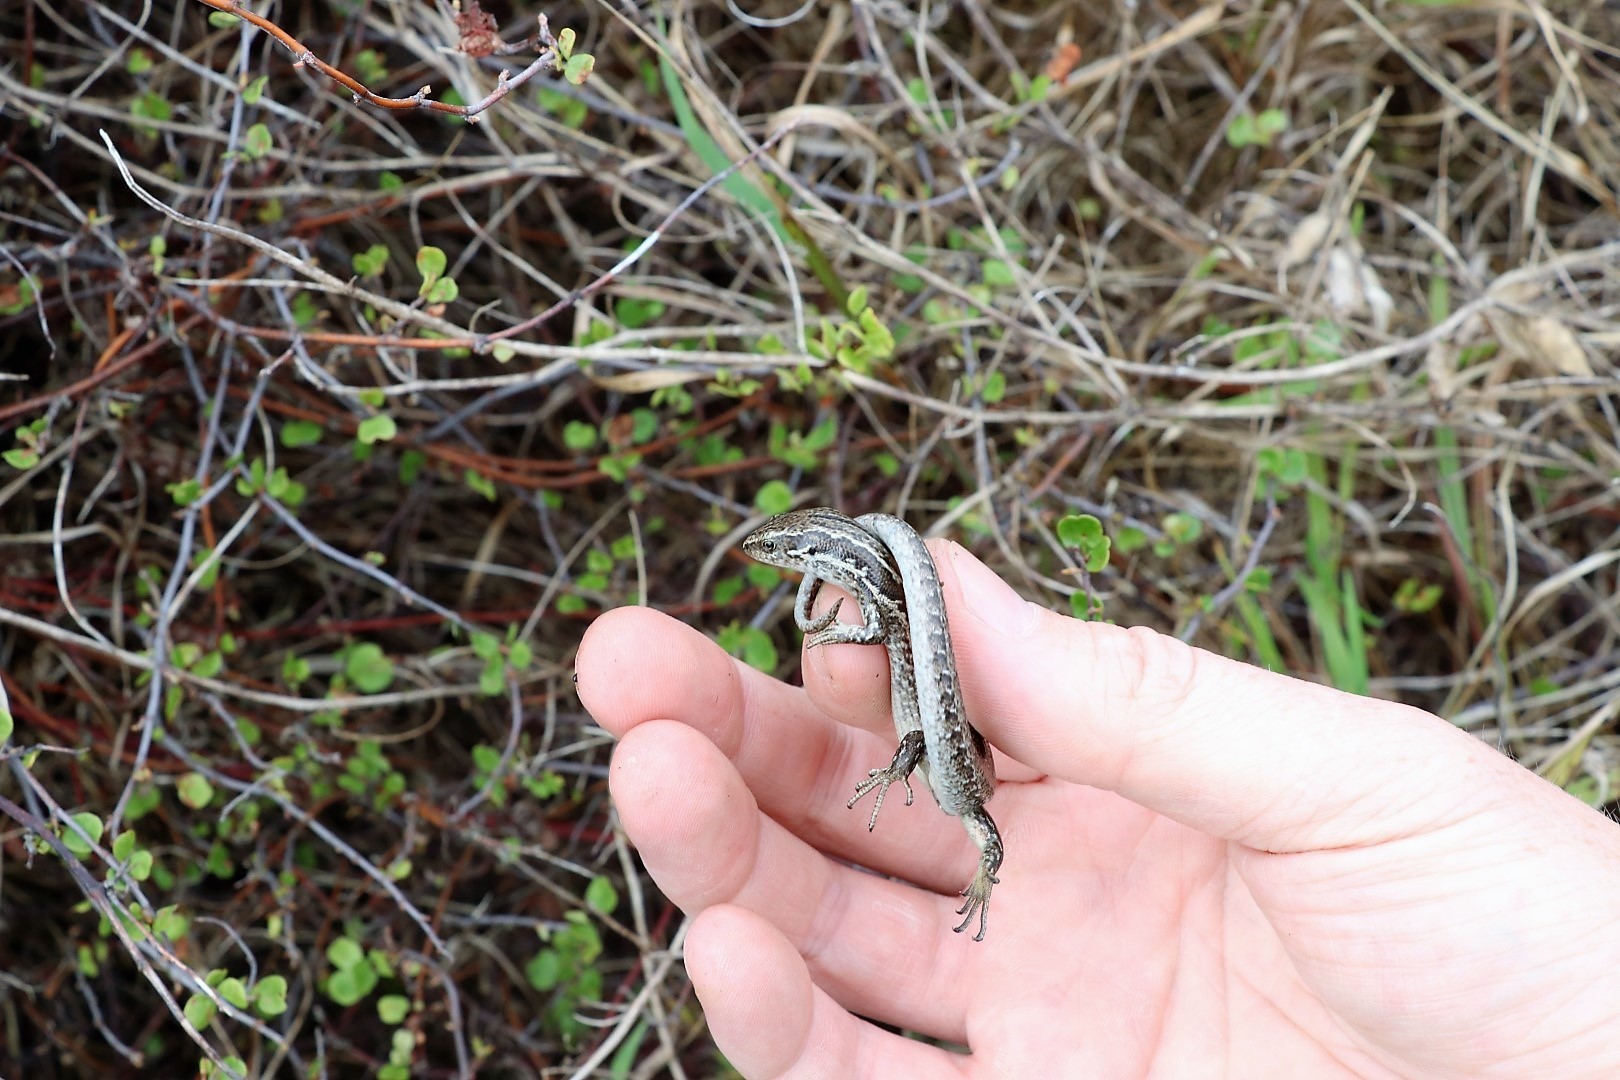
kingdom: Animalia
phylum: Chordata
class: Squamata
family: Scincidae
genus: Oligosoma
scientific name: Oligosoma polychroma
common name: Common new zealand skink
